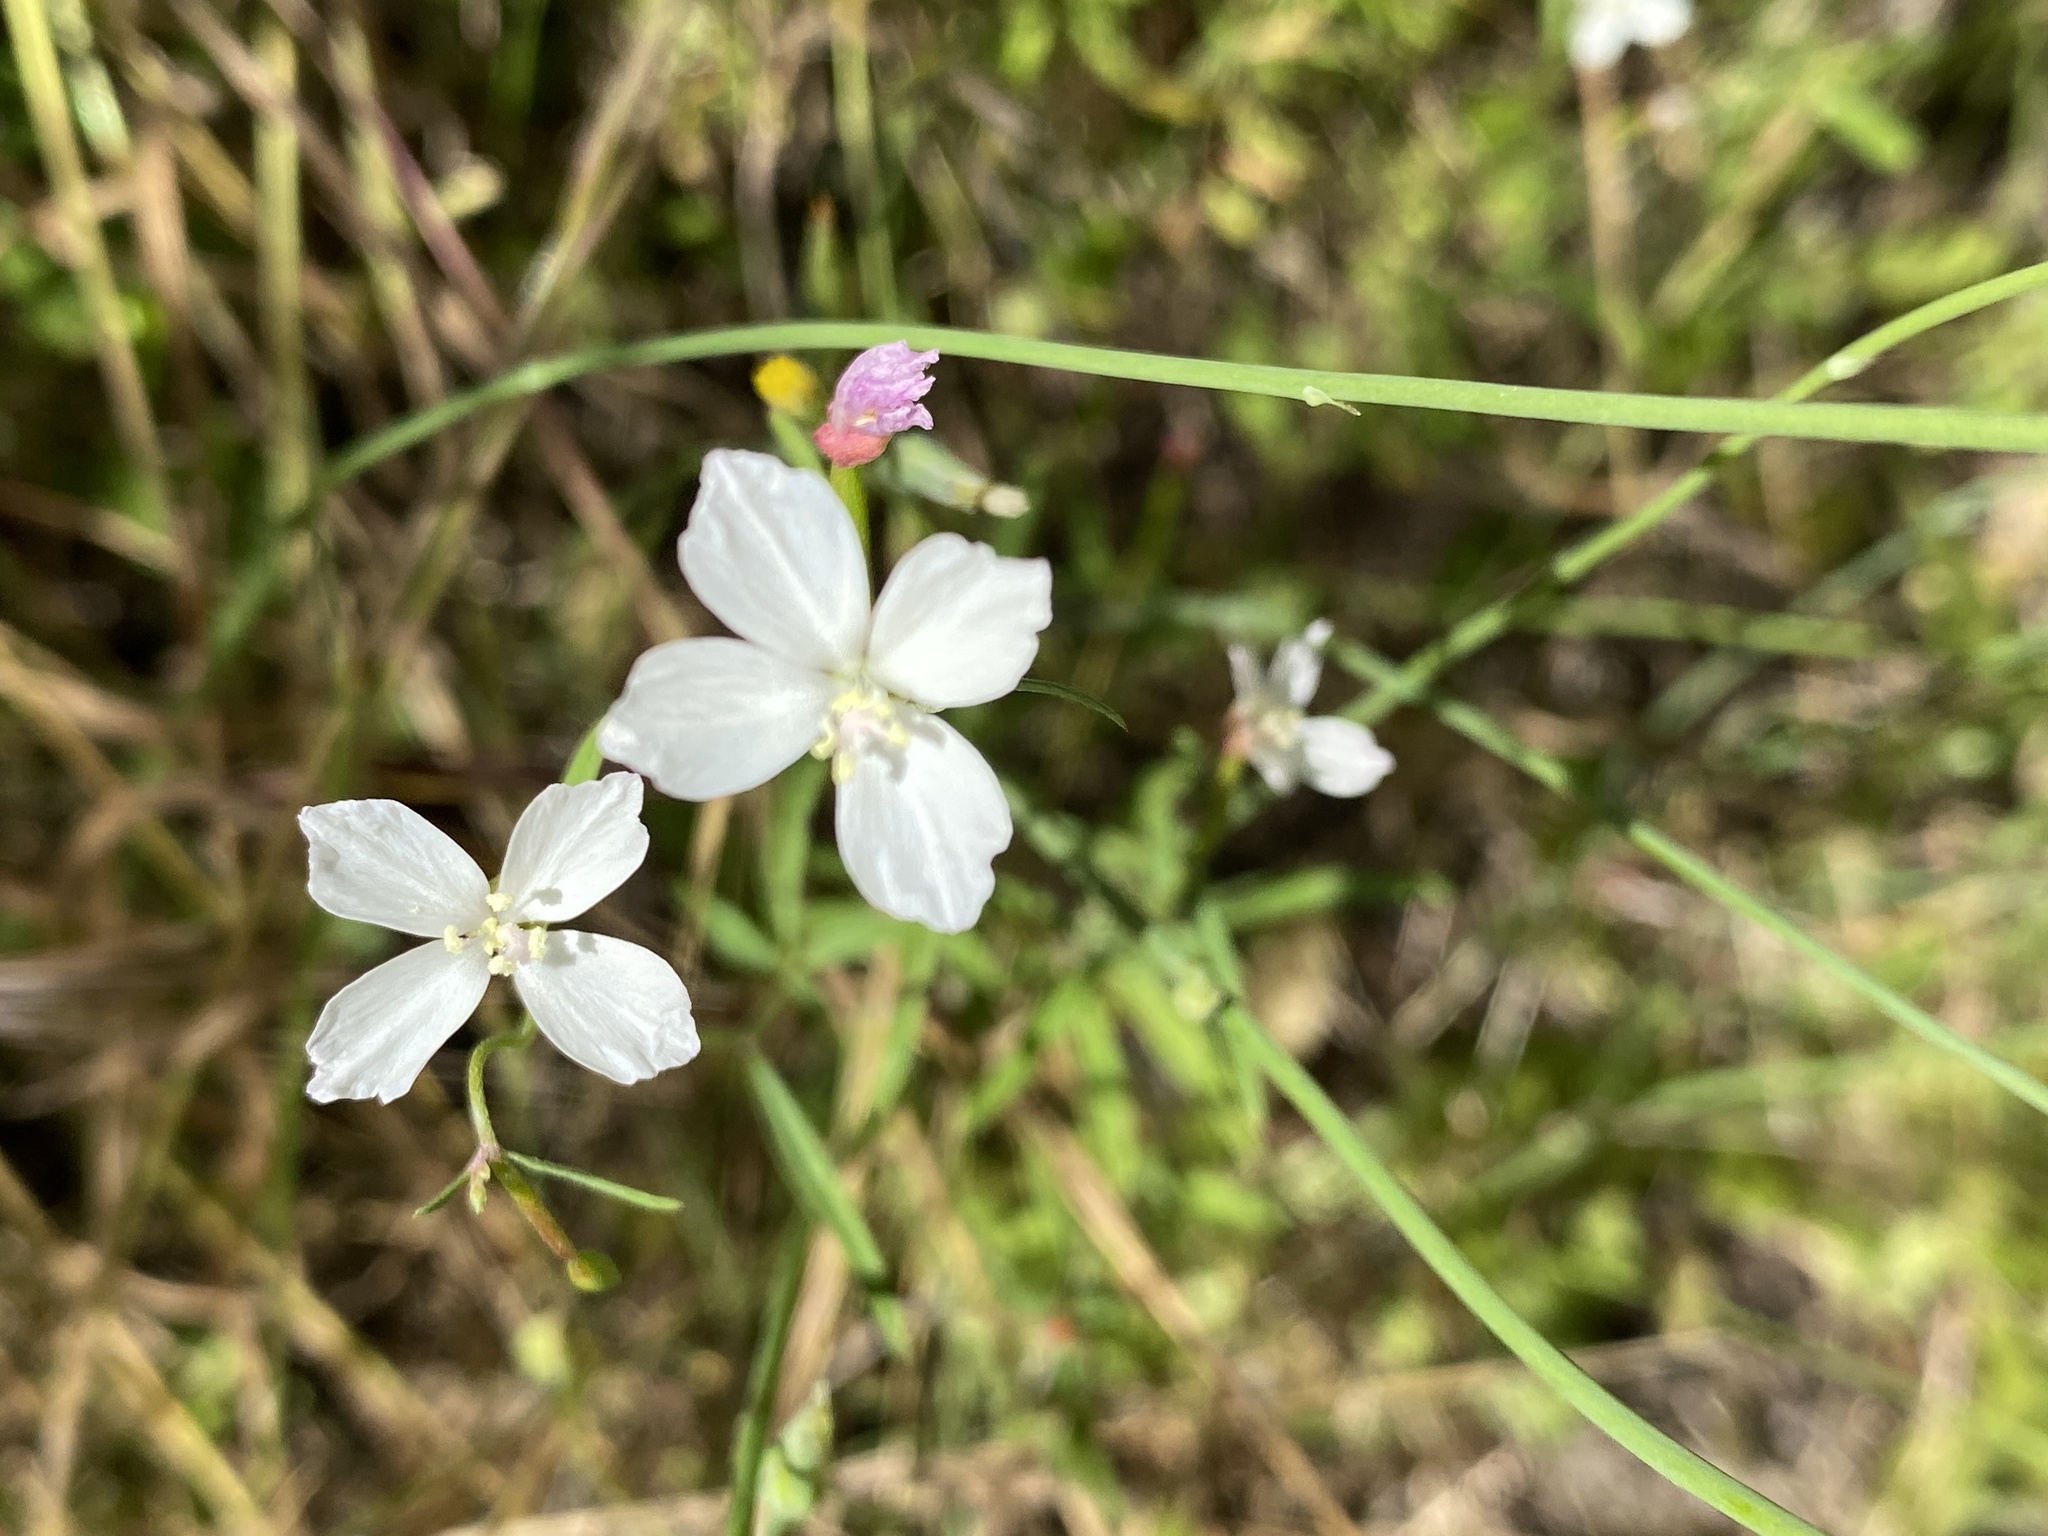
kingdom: Plantae
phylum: Tracheophyta
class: Magnoliopsida
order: Myrtales
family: Onagraceae
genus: Clarkia
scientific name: Clarkia epilobioides
